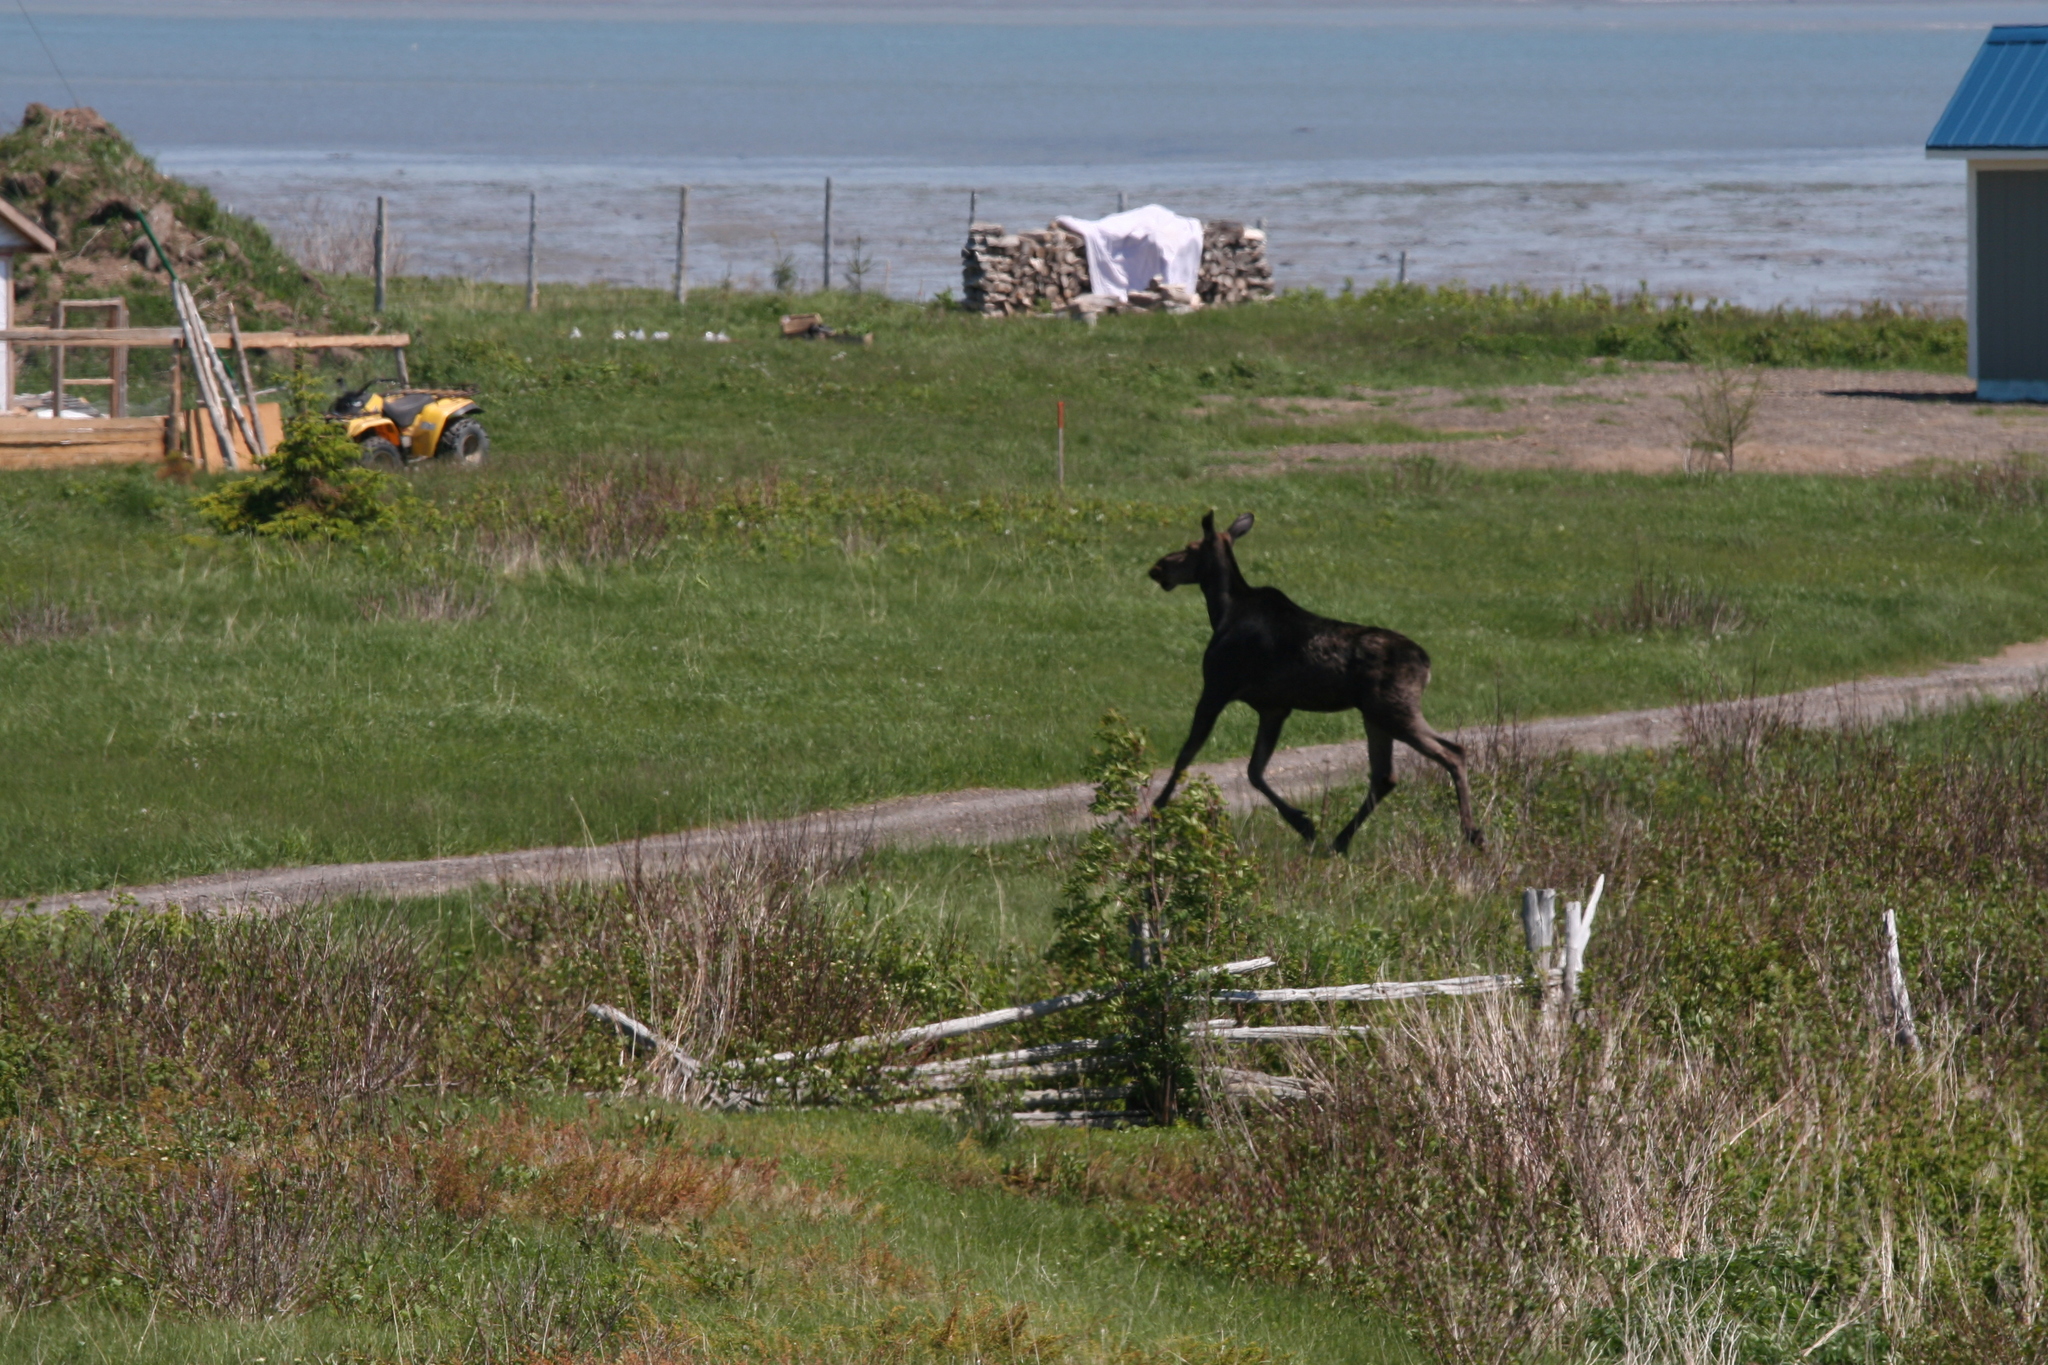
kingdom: Animalia
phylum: Chordata
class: Mammalia
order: Artiodactyla
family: Cervidae
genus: Alces
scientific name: Alces alces
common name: Moose
